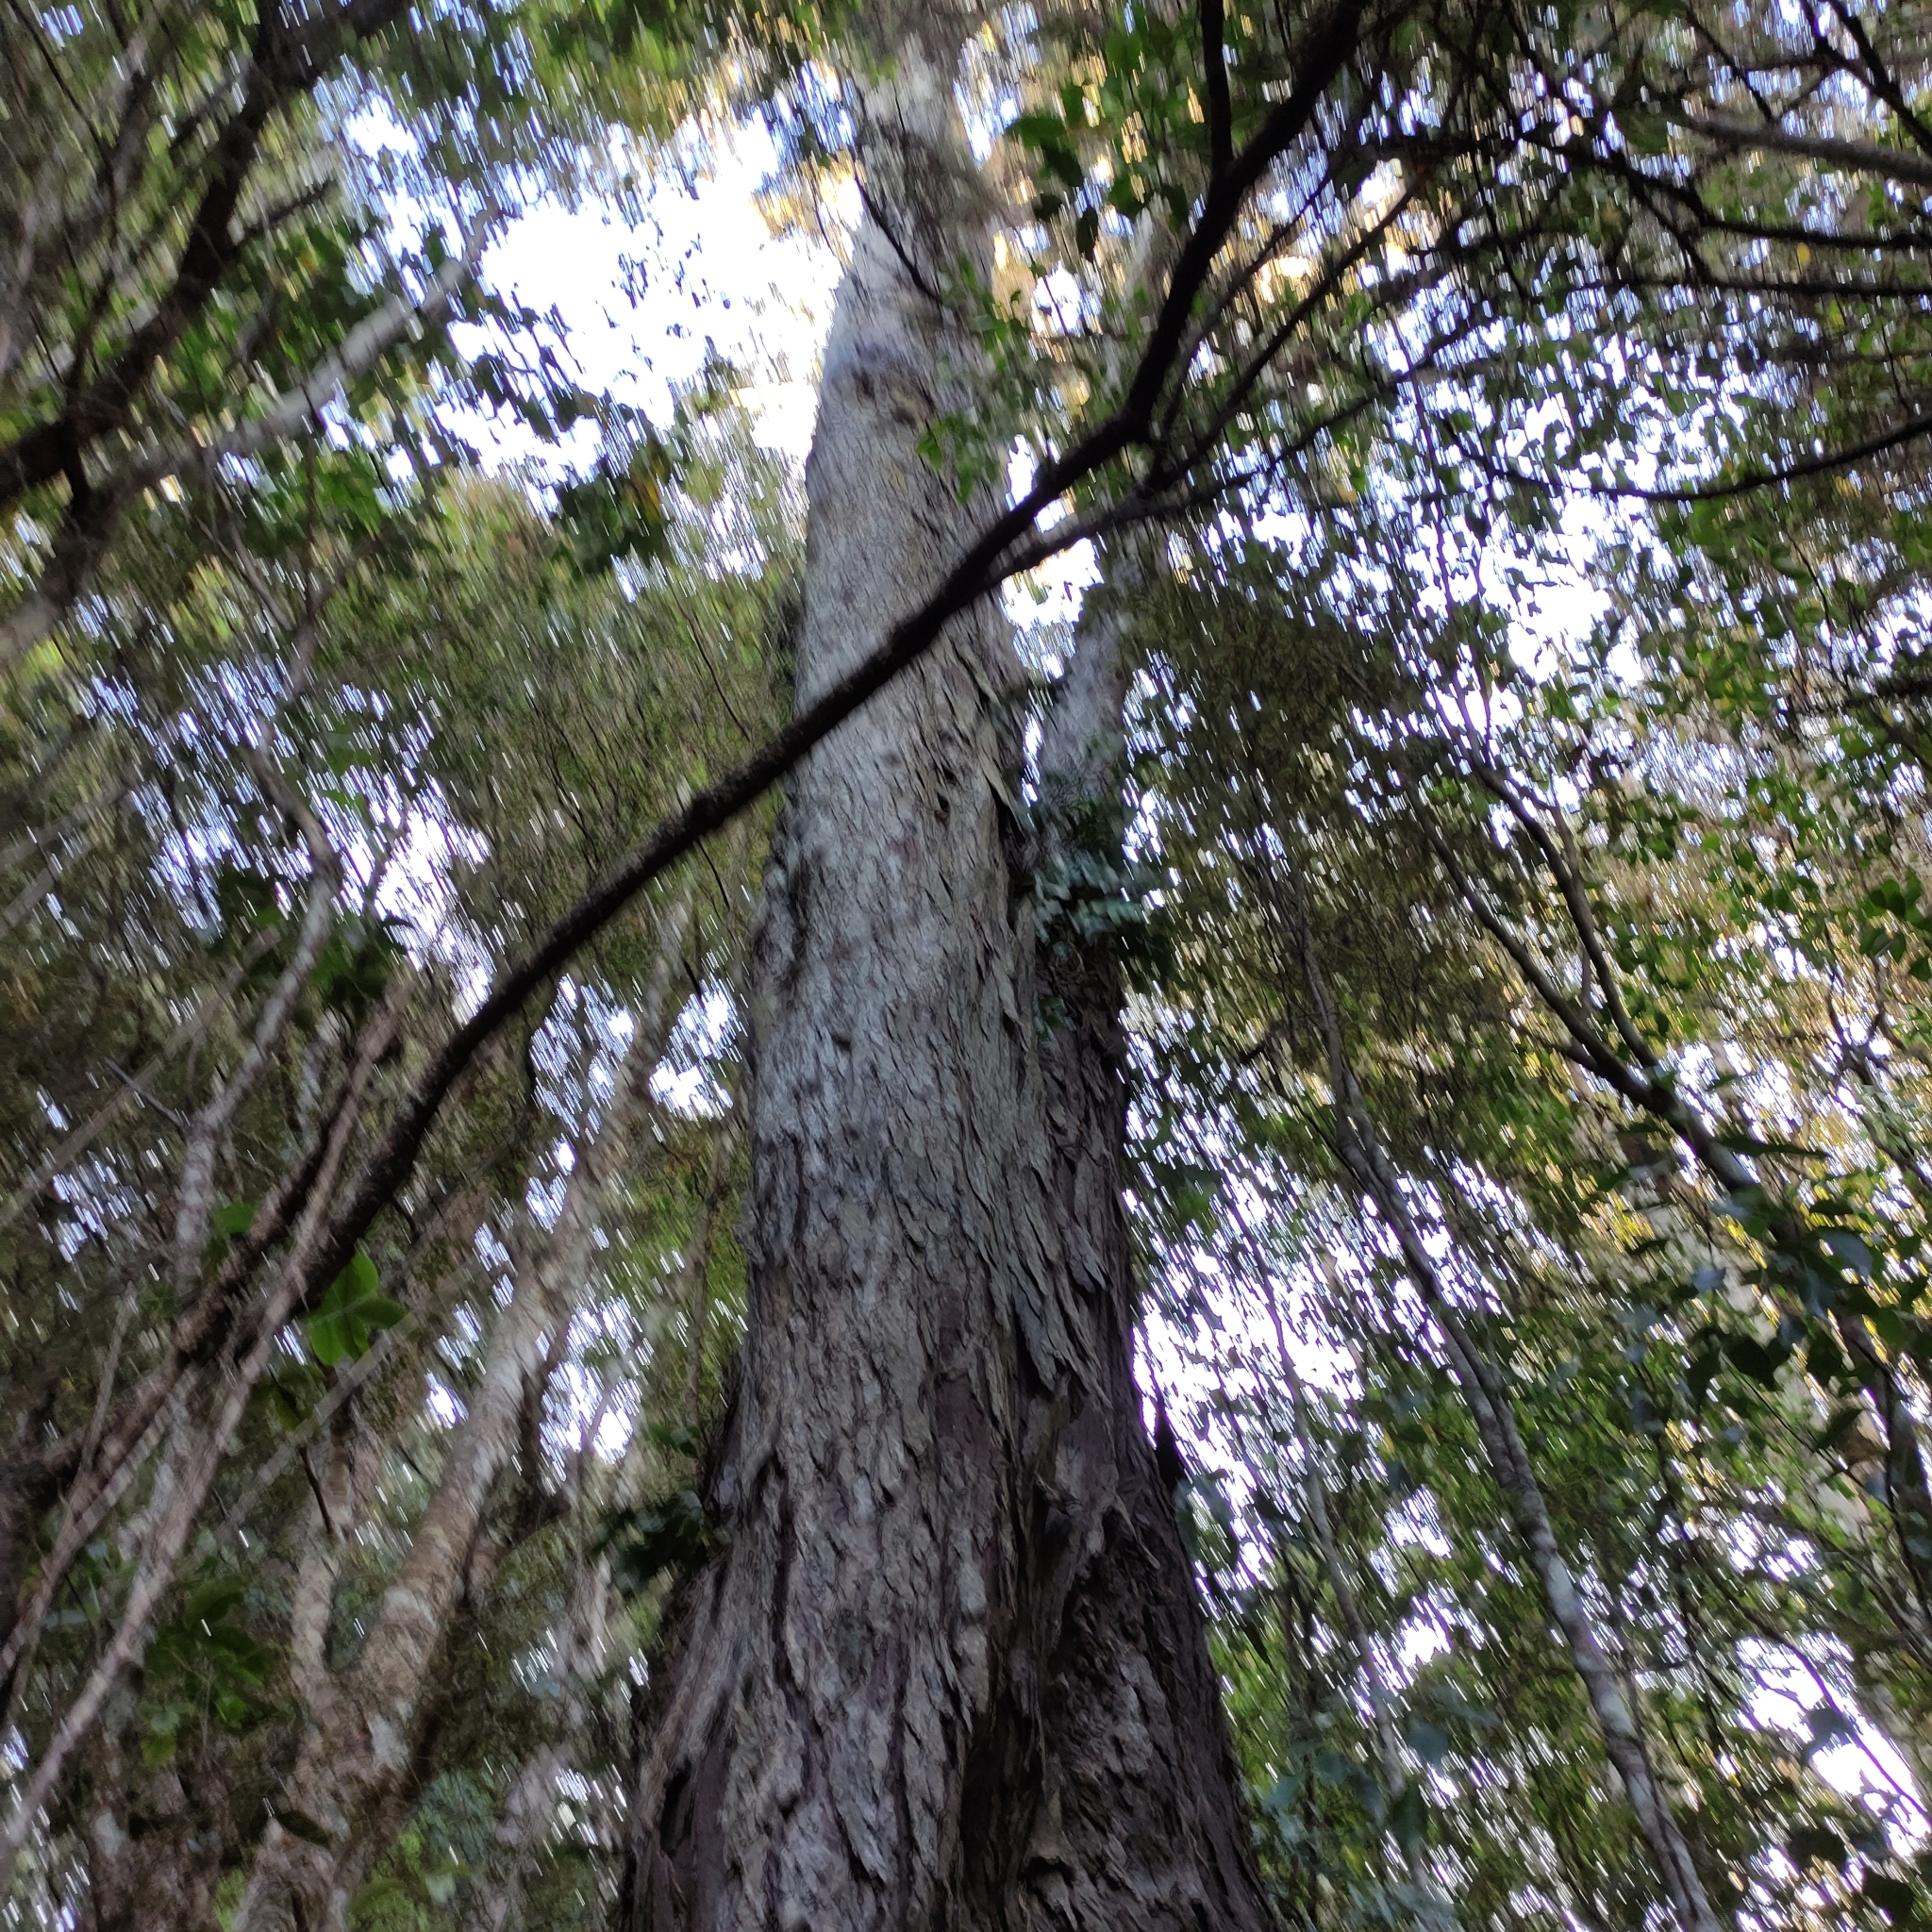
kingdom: Plantae
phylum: Tracheophyta
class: Pinopsida
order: Pinales
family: Podocarpaceae
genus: Dacrydium
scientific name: Dacrydium cupressinum
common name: Red pine
